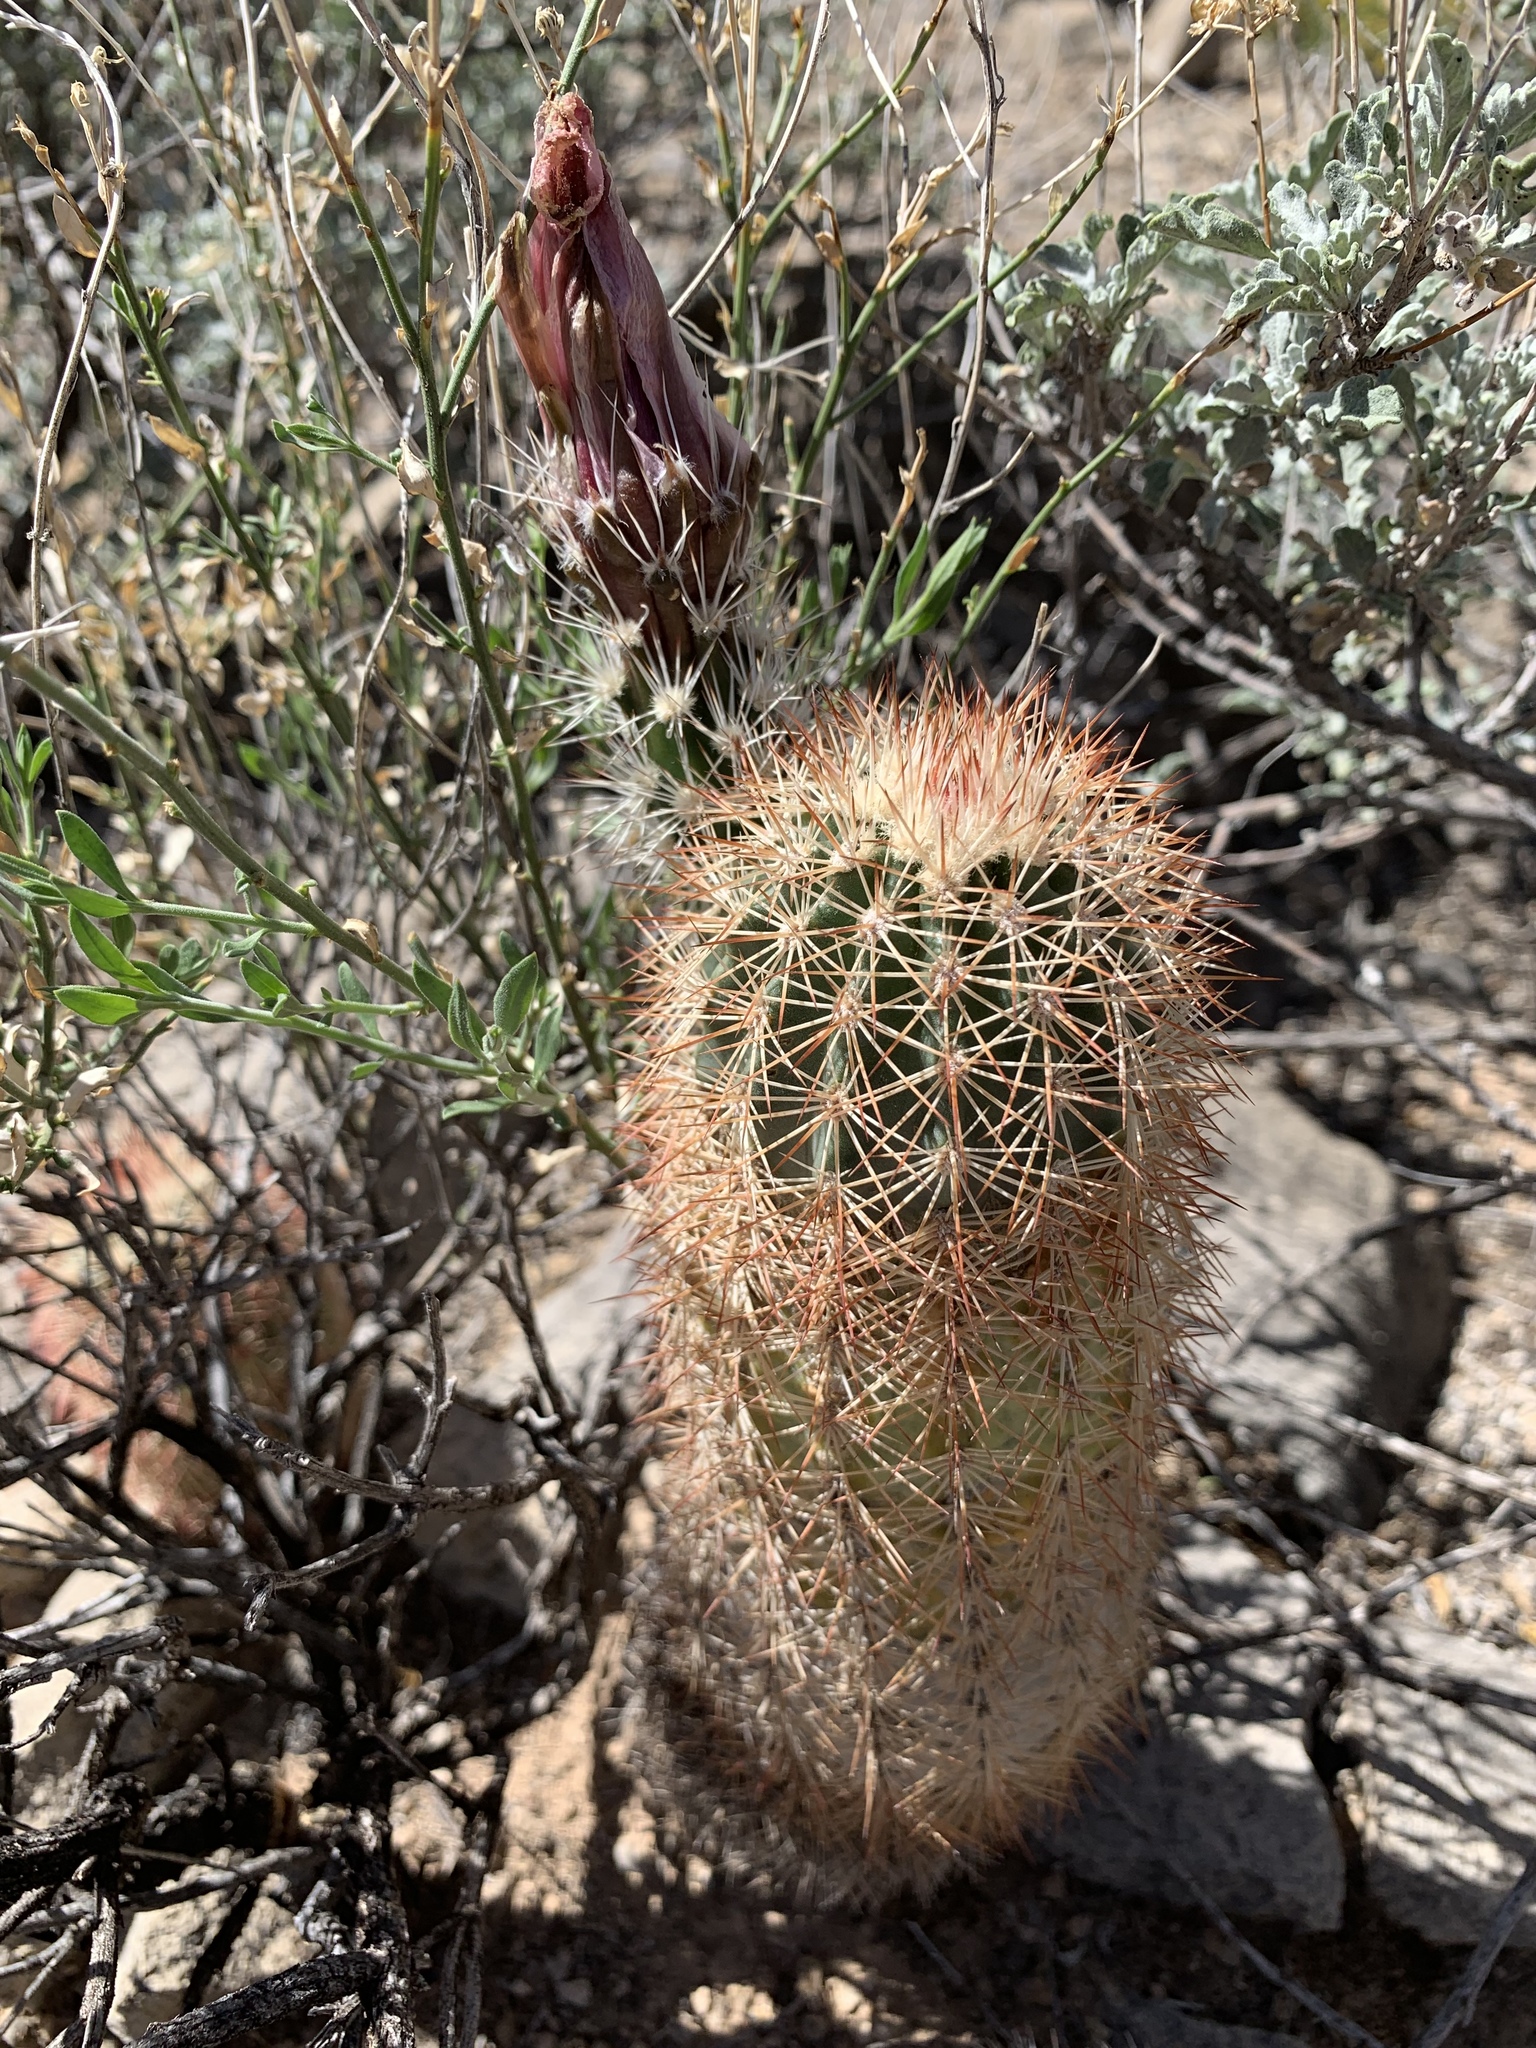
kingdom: Plantae
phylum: Tracheophyta
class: Magnoliopsida
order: Caryophyllales
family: Cactaceae
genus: Echinocereus
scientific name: Echinocereus dasyacanthus
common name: Spiny hedgehog cactus
